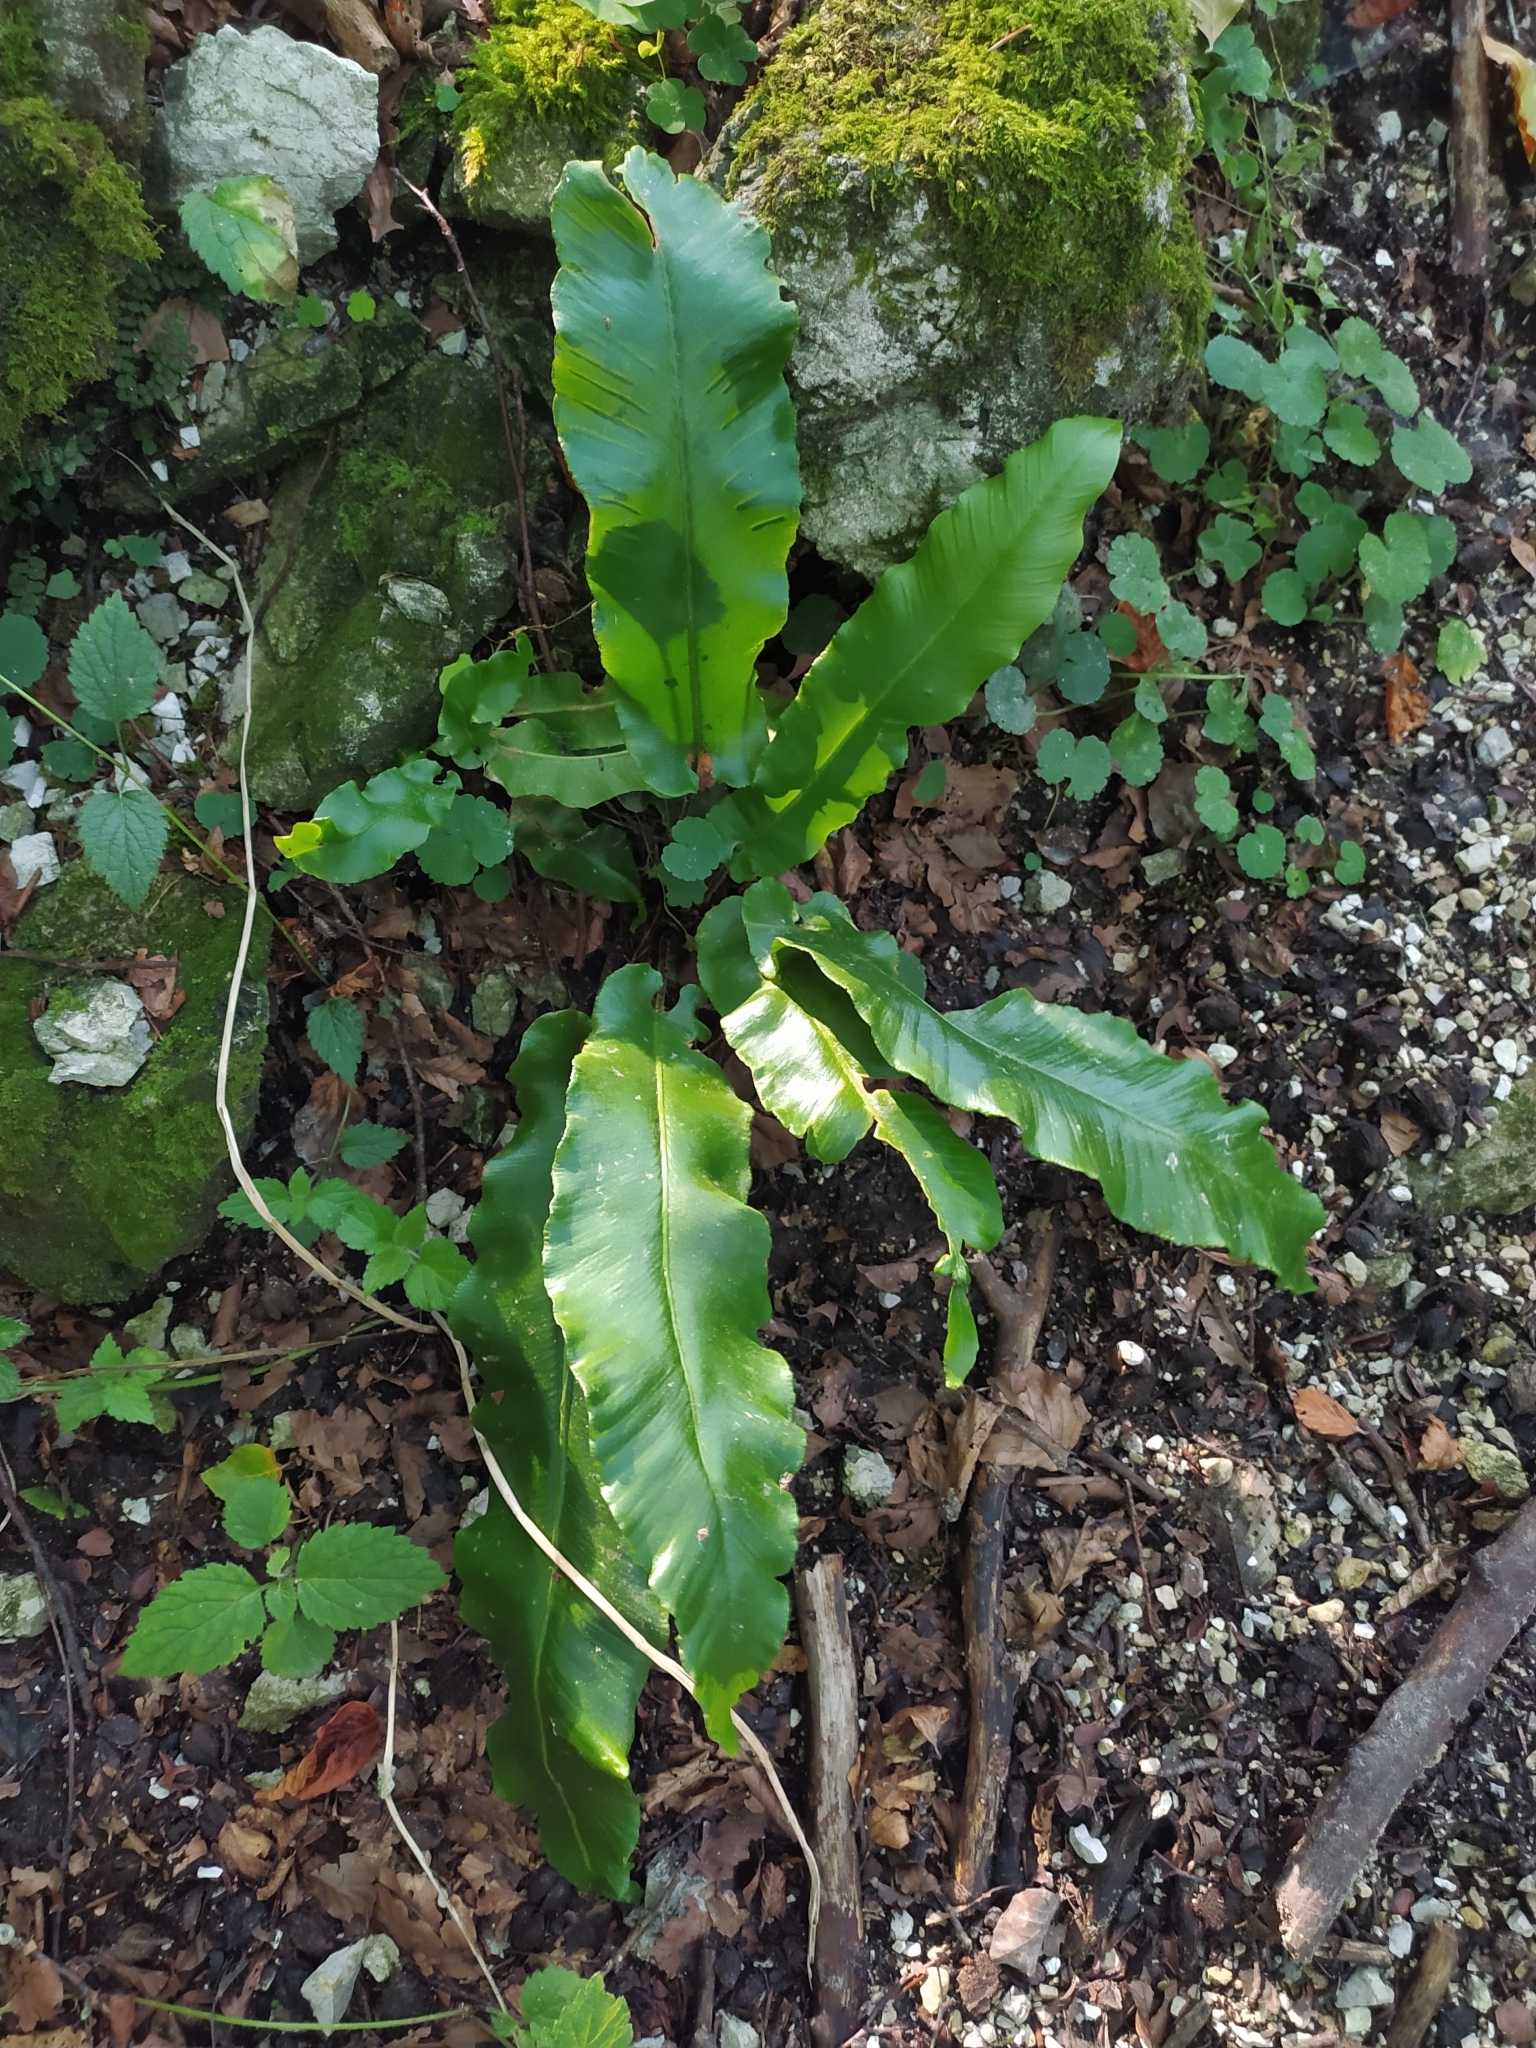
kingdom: Plantae
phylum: Tracheophyta
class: Polypodiopsida
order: Polypodiales
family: Aspleniaceae
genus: Asplenium
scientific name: Asplenium scolopendrium
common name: Hart's-tongue fern
